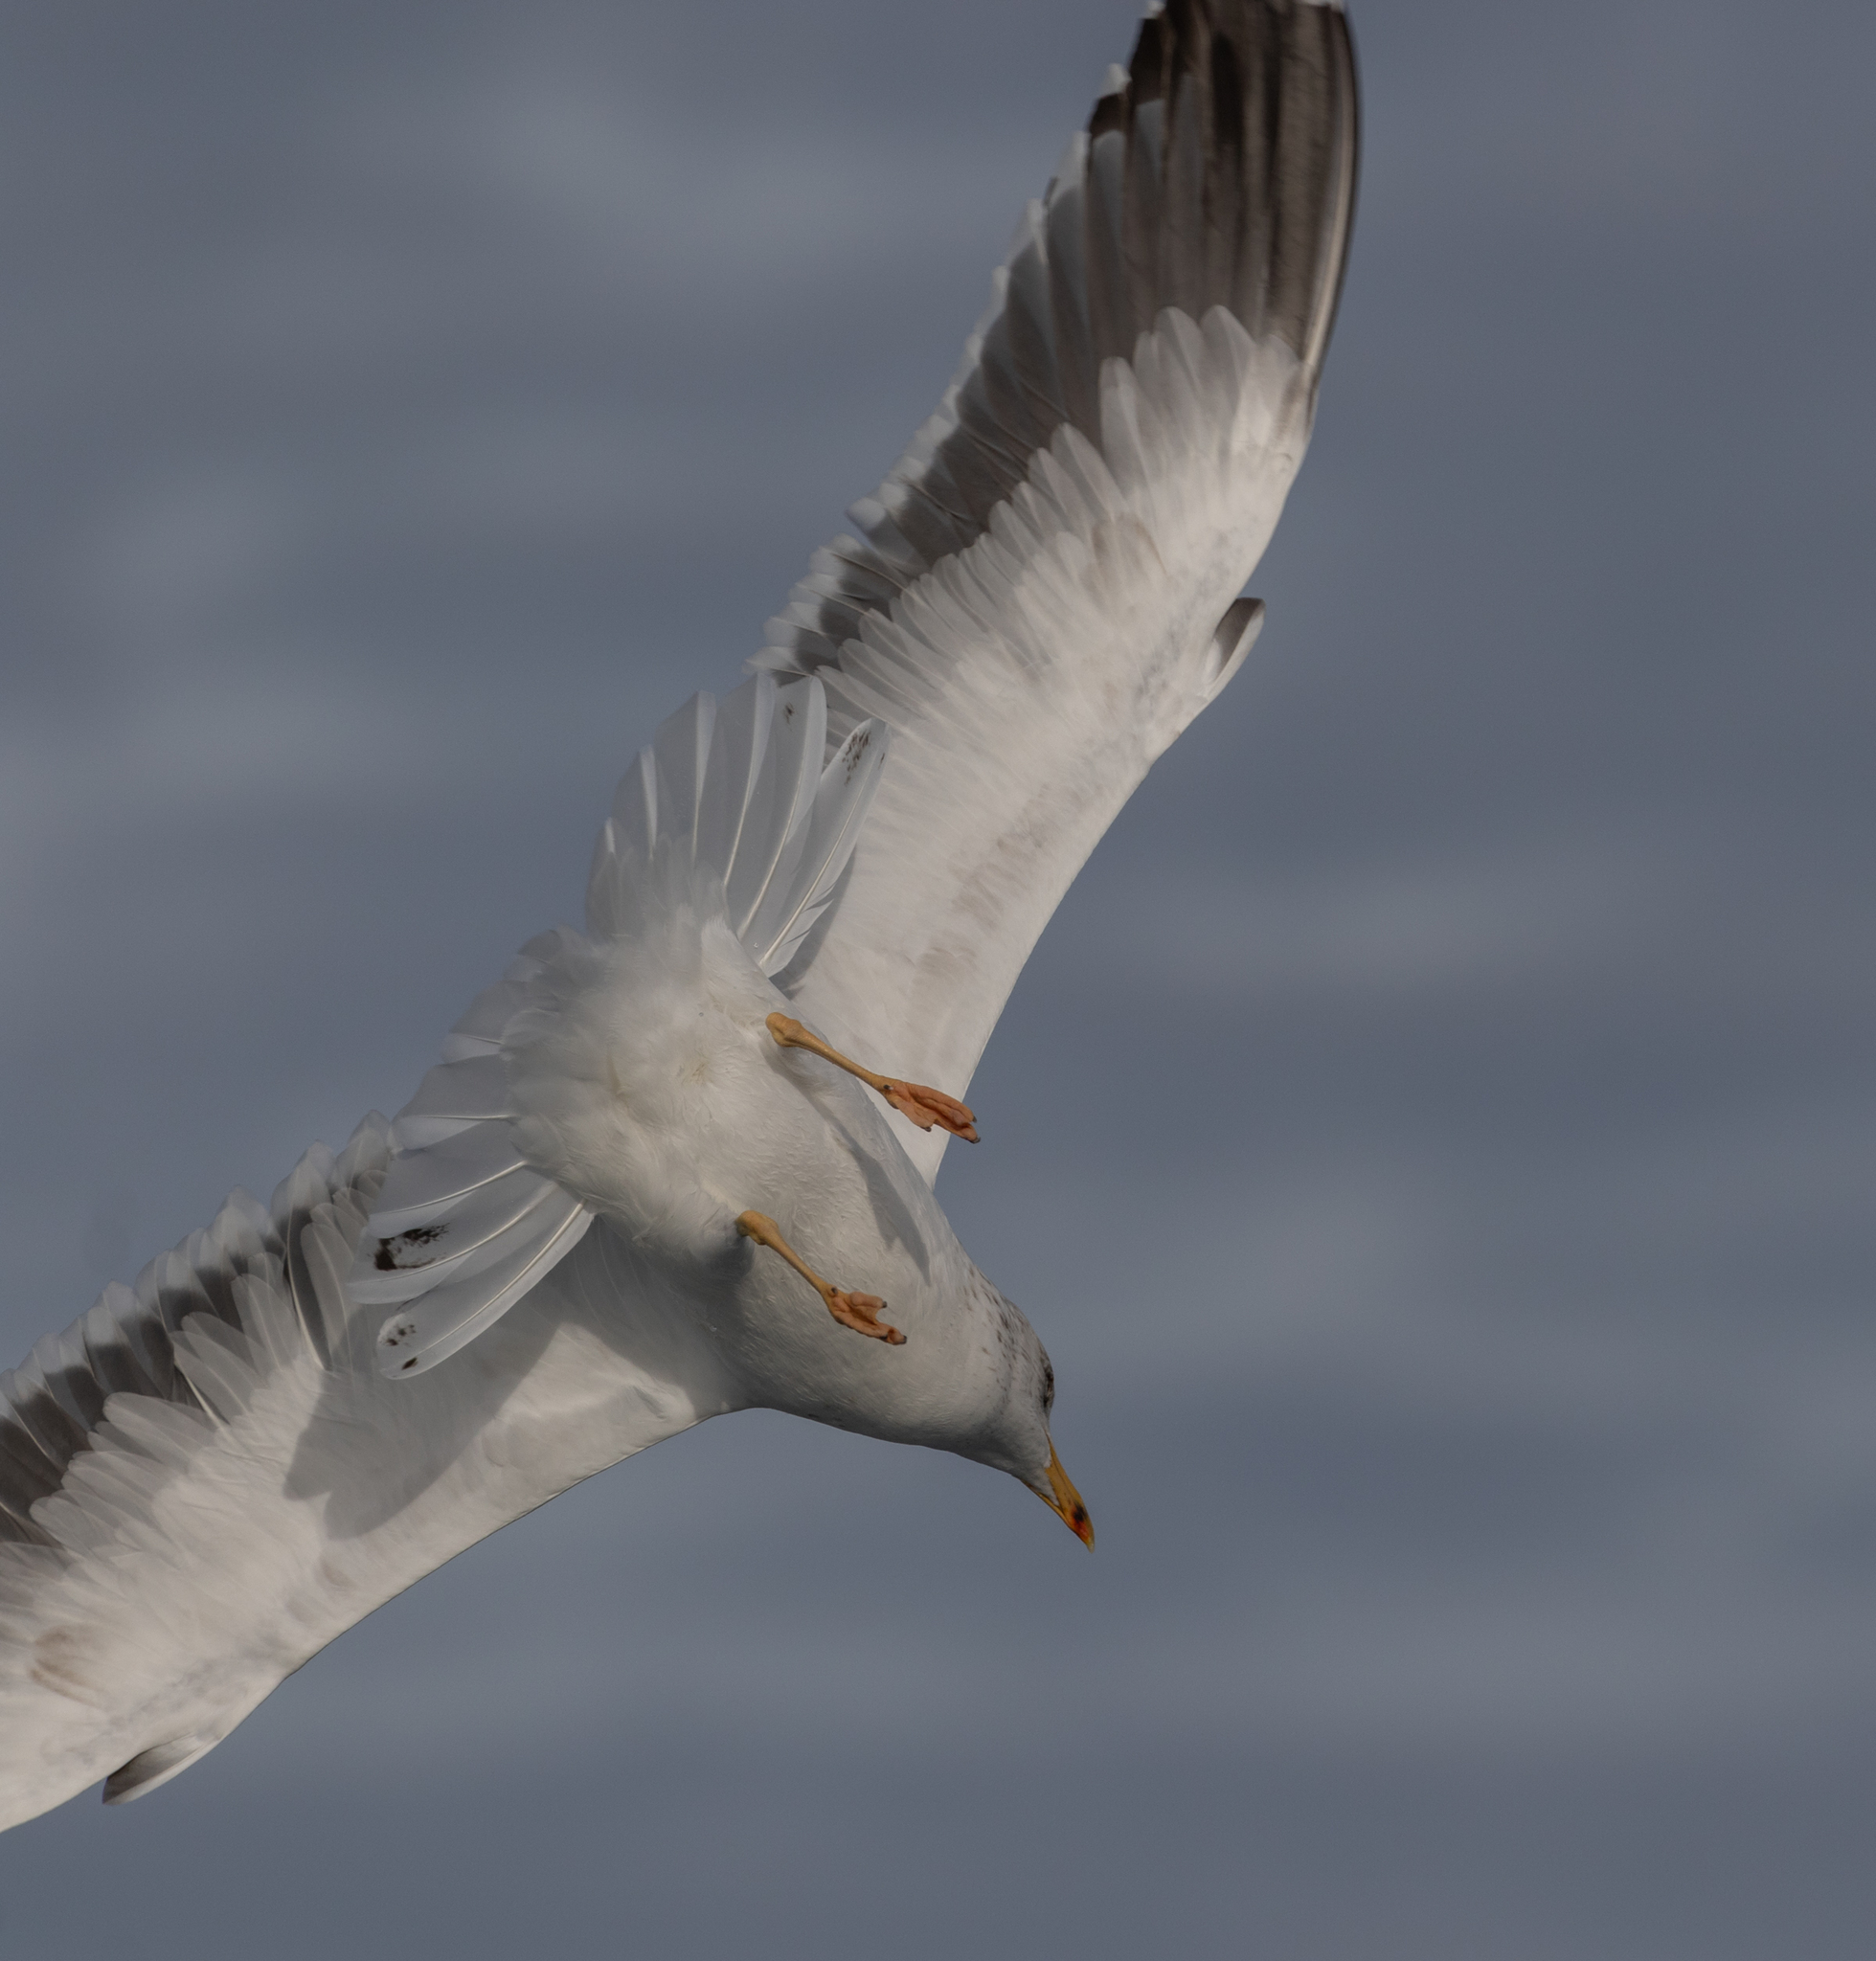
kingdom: Animalia
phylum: Chordata
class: Aves
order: Charadriiformes
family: Laridae
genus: Larus
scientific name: Larus fuscus
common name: Lesser black-backed gull
